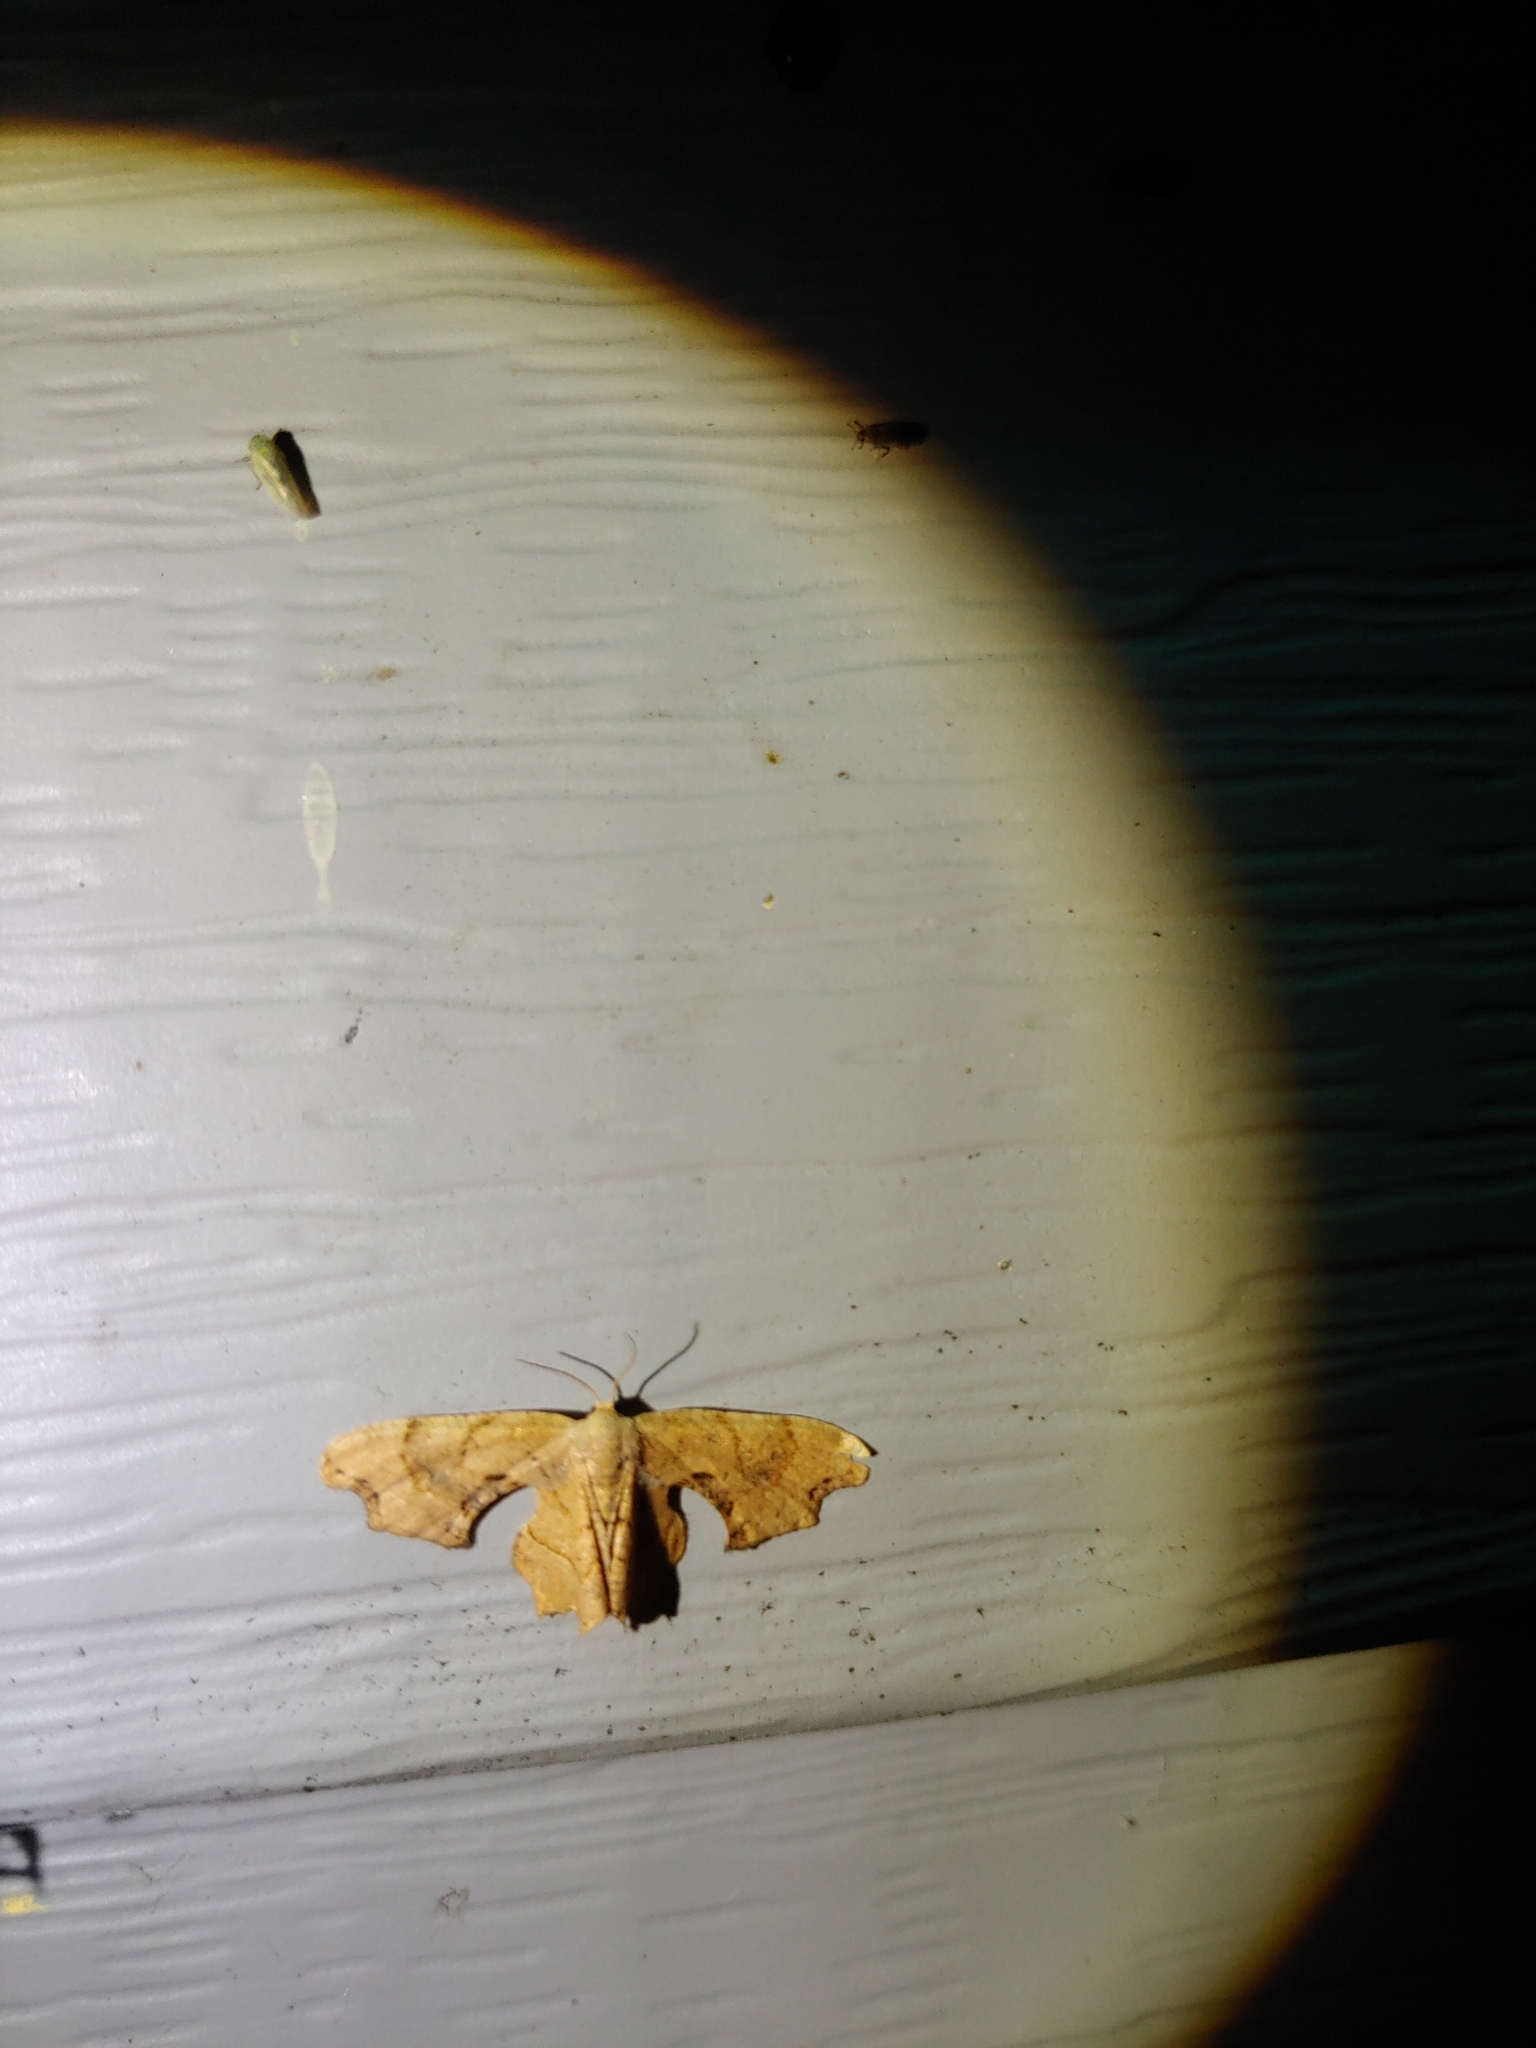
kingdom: Animalia
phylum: Arthropoda
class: Insecta
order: Lepidoptera
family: Uraniidae
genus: Epiplema
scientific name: Epiplema Calledapteryx dryopterata
